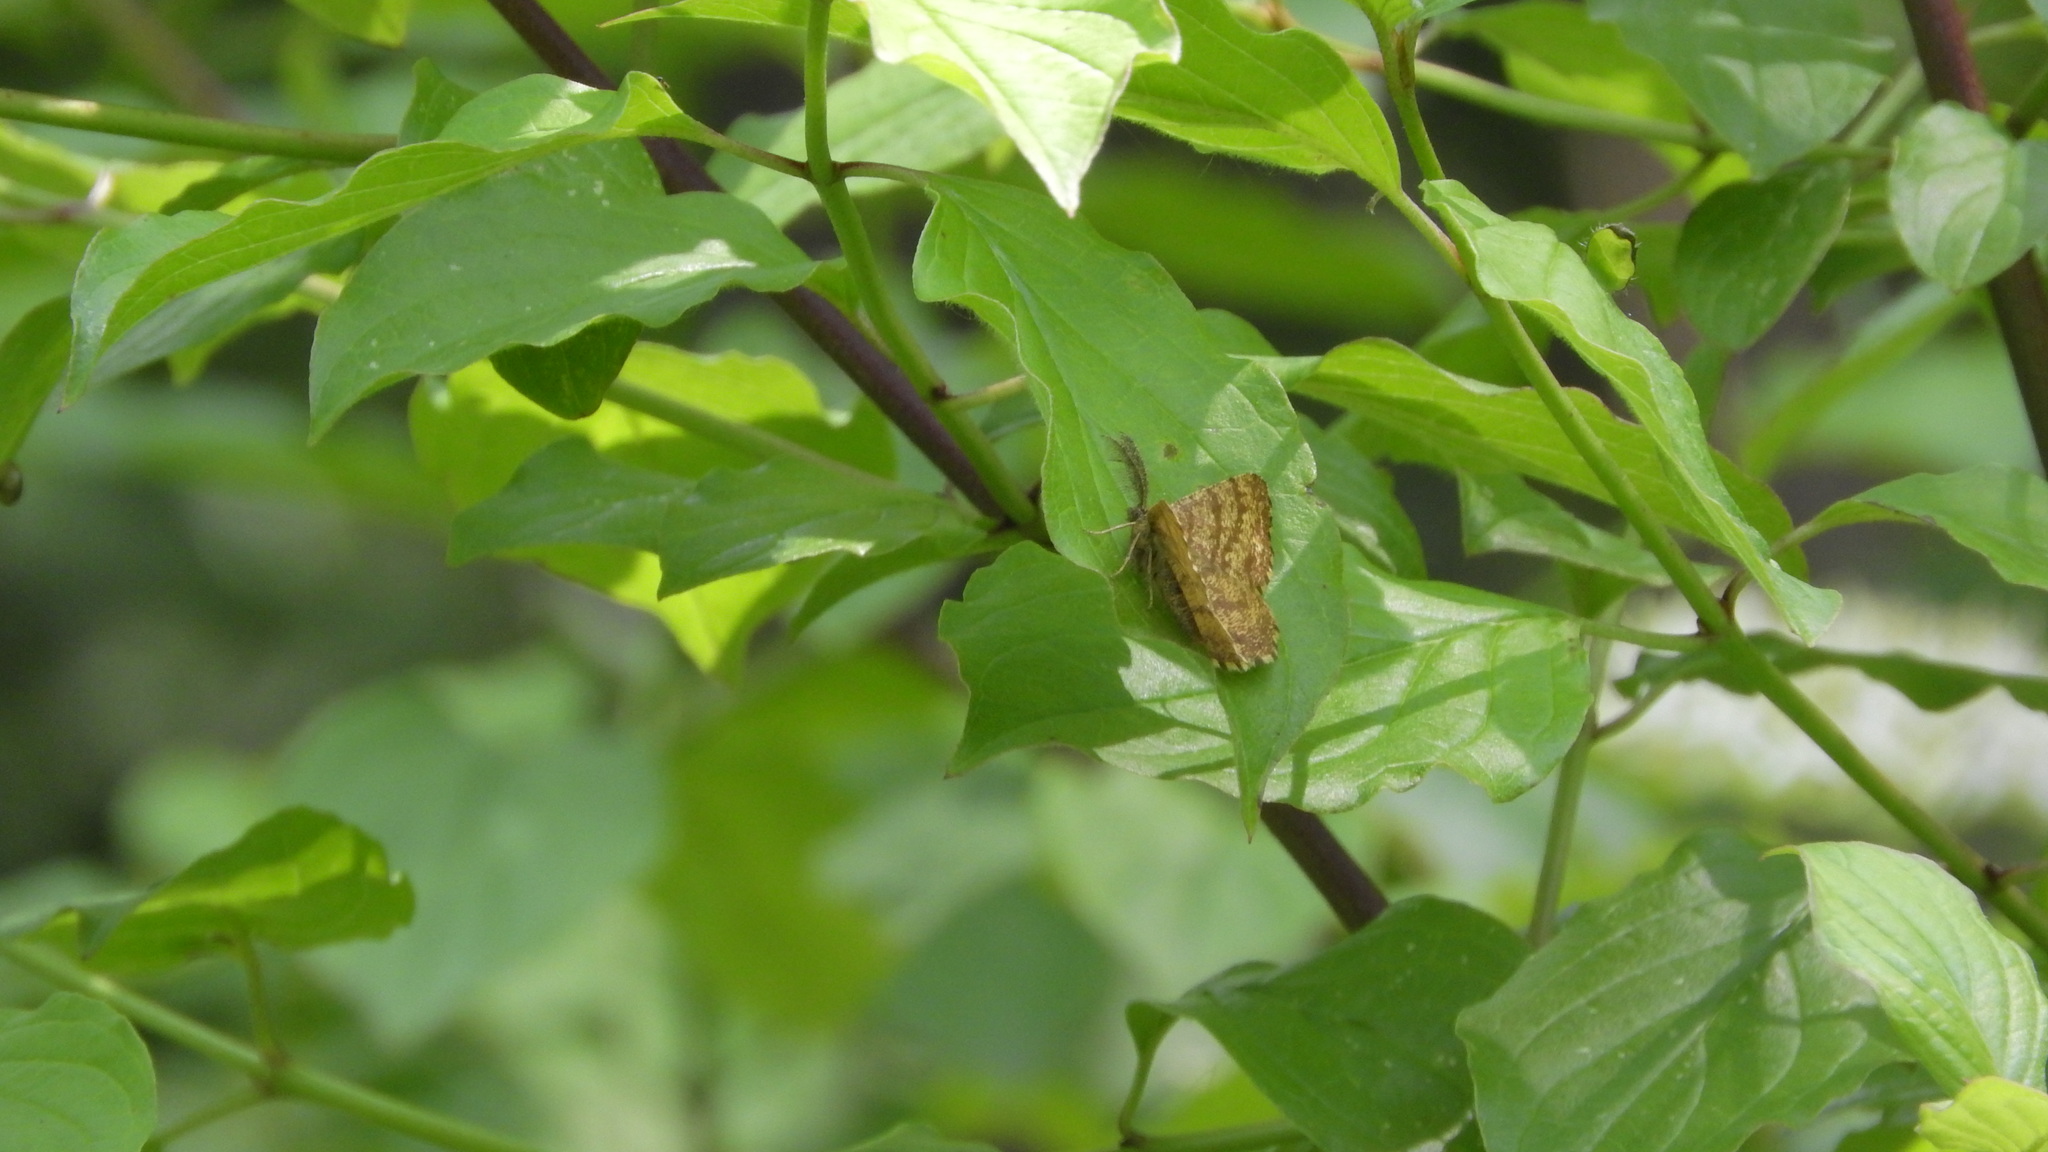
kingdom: Animalia
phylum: Arthropoda
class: Insecta
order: Lepidoptera
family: Geometridae
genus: Ematurga
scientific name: Ematurga atomaria
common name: Common heath
